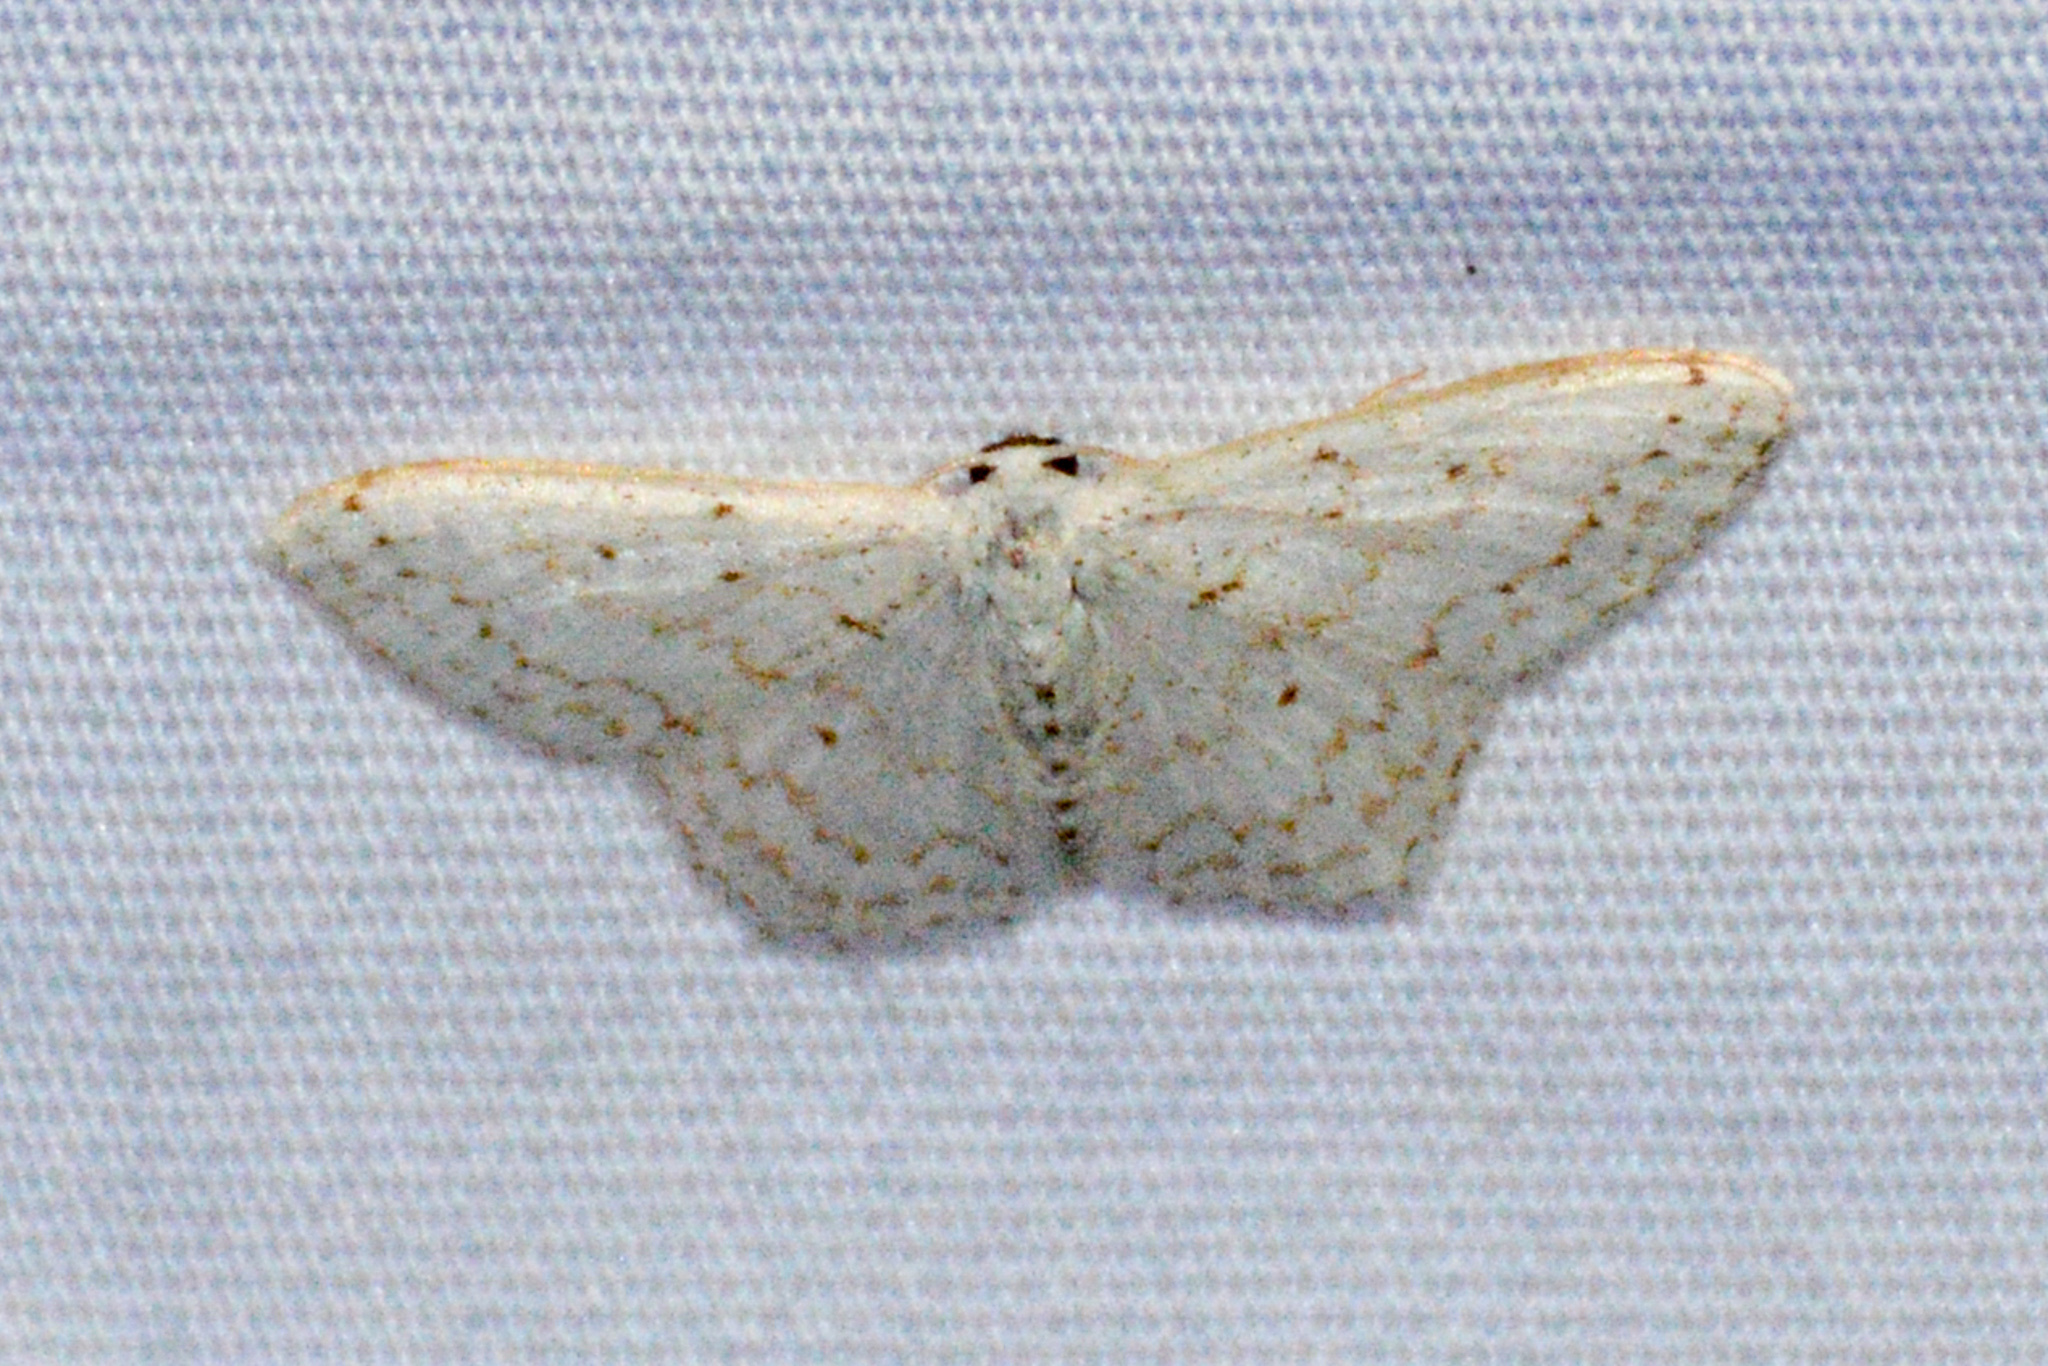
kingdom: Animalia
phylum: Arthropoda
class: Insecta
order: Lepidoptera
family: Geometridae
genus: Idaea
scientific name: Idaea tacturata
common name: Dot-lined wave
